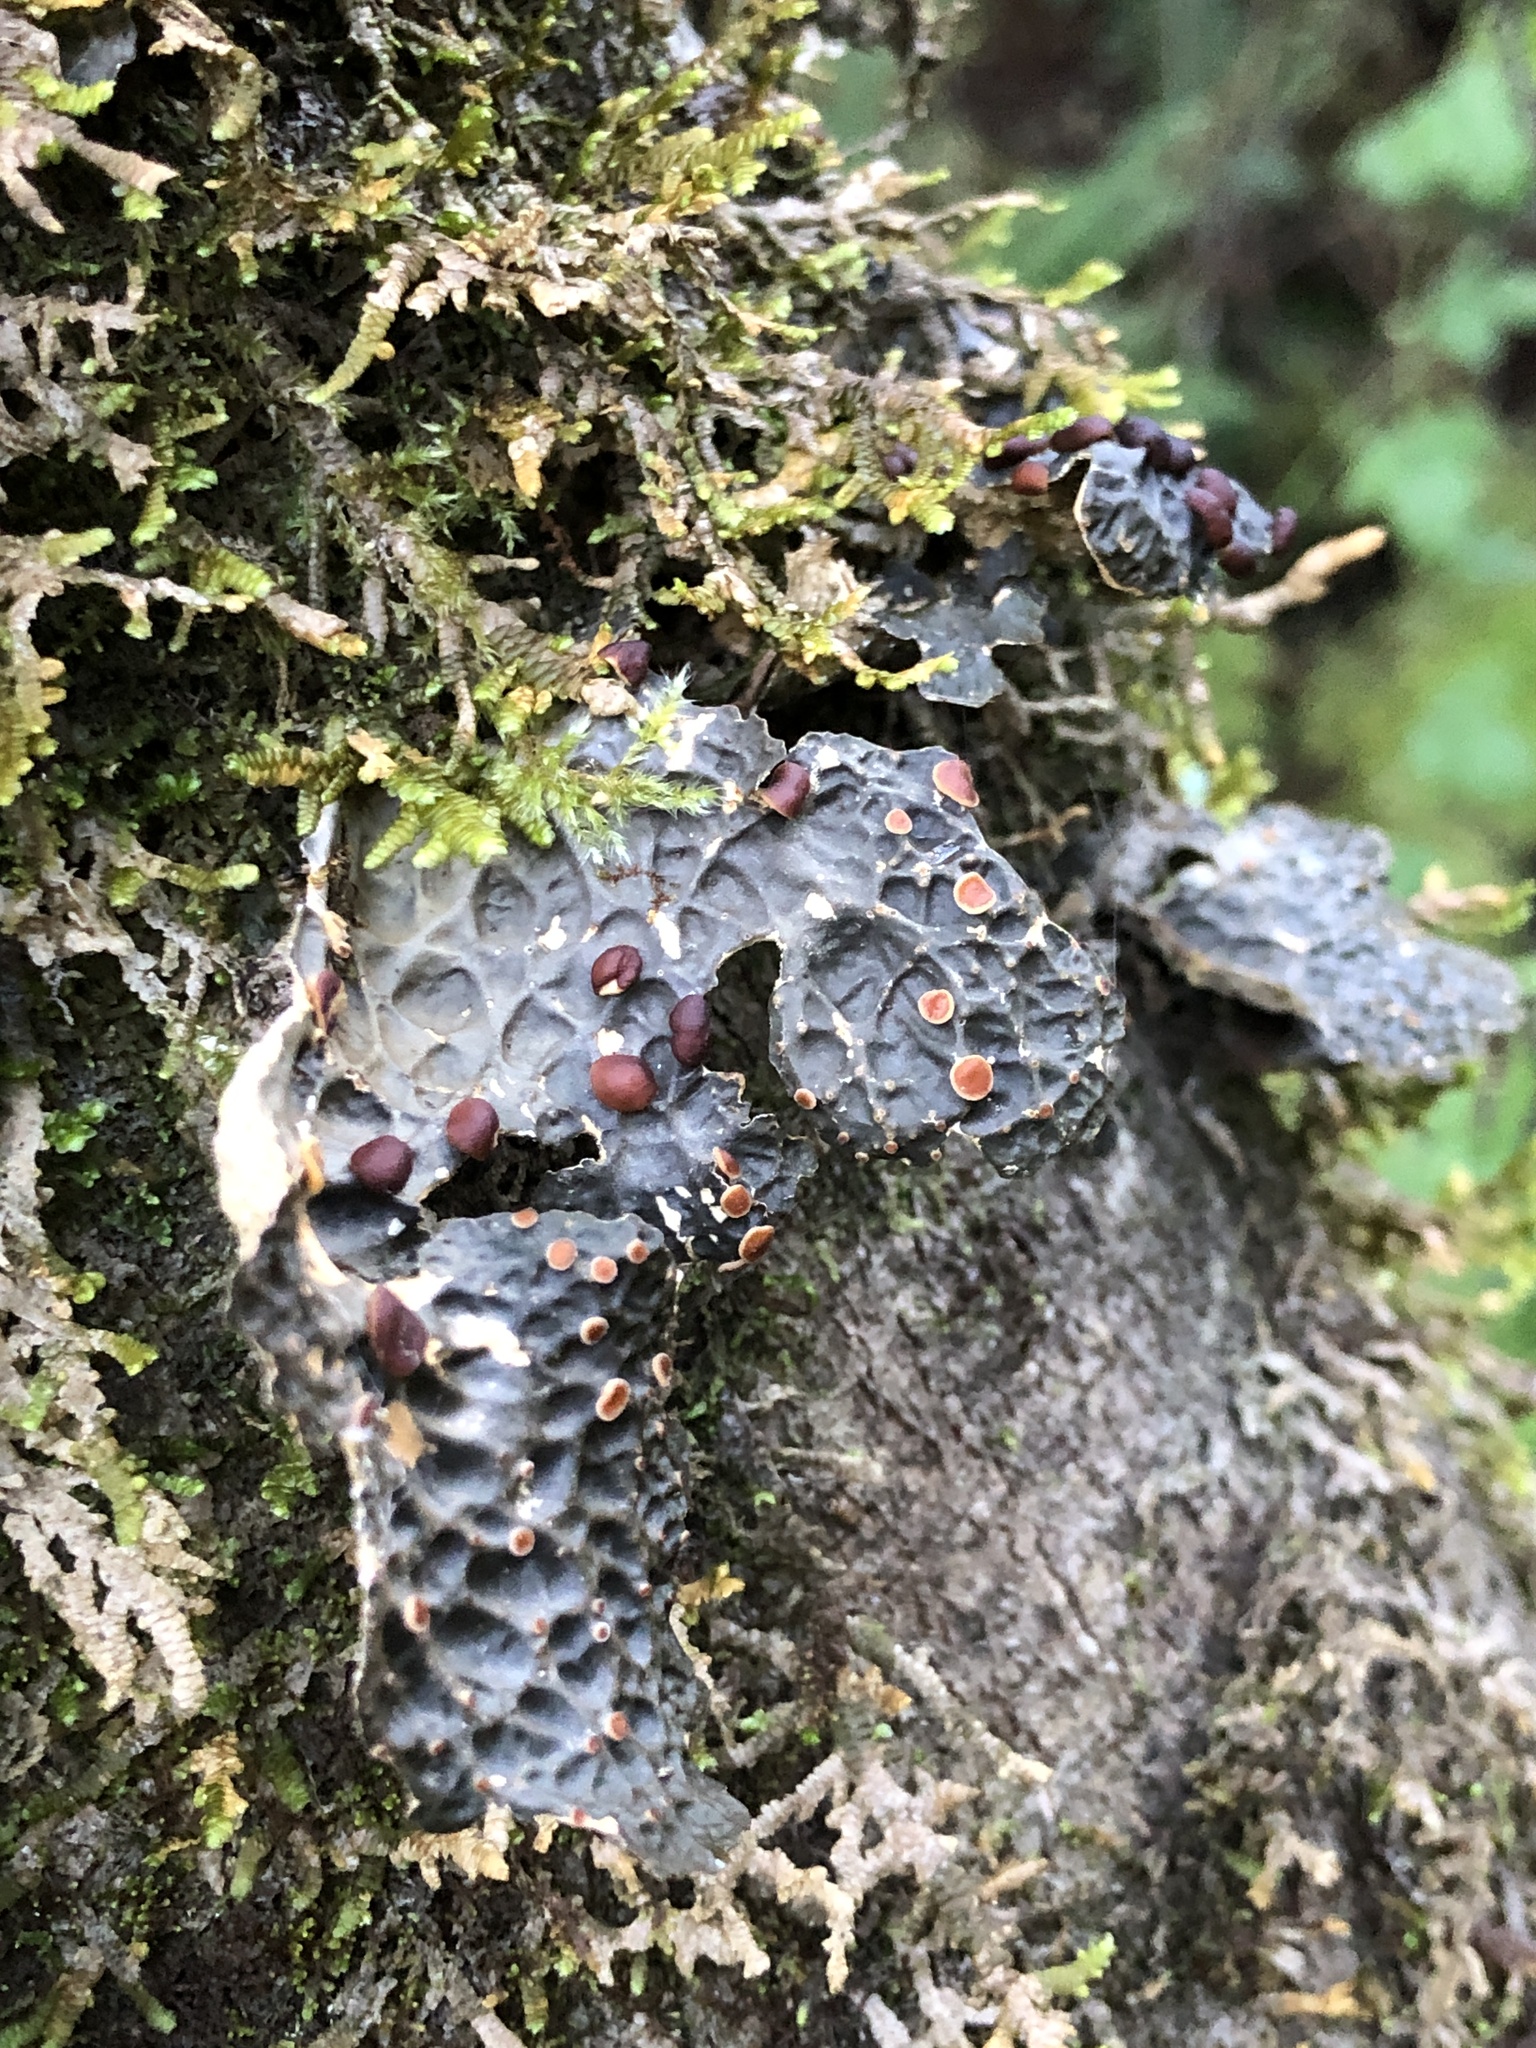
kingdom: Fungi
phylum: Ascomycota
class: Lecanoromycetes
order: Peltigerales
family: Lobariaceae
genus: Lobaria
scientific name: Lobaria anthraspis
